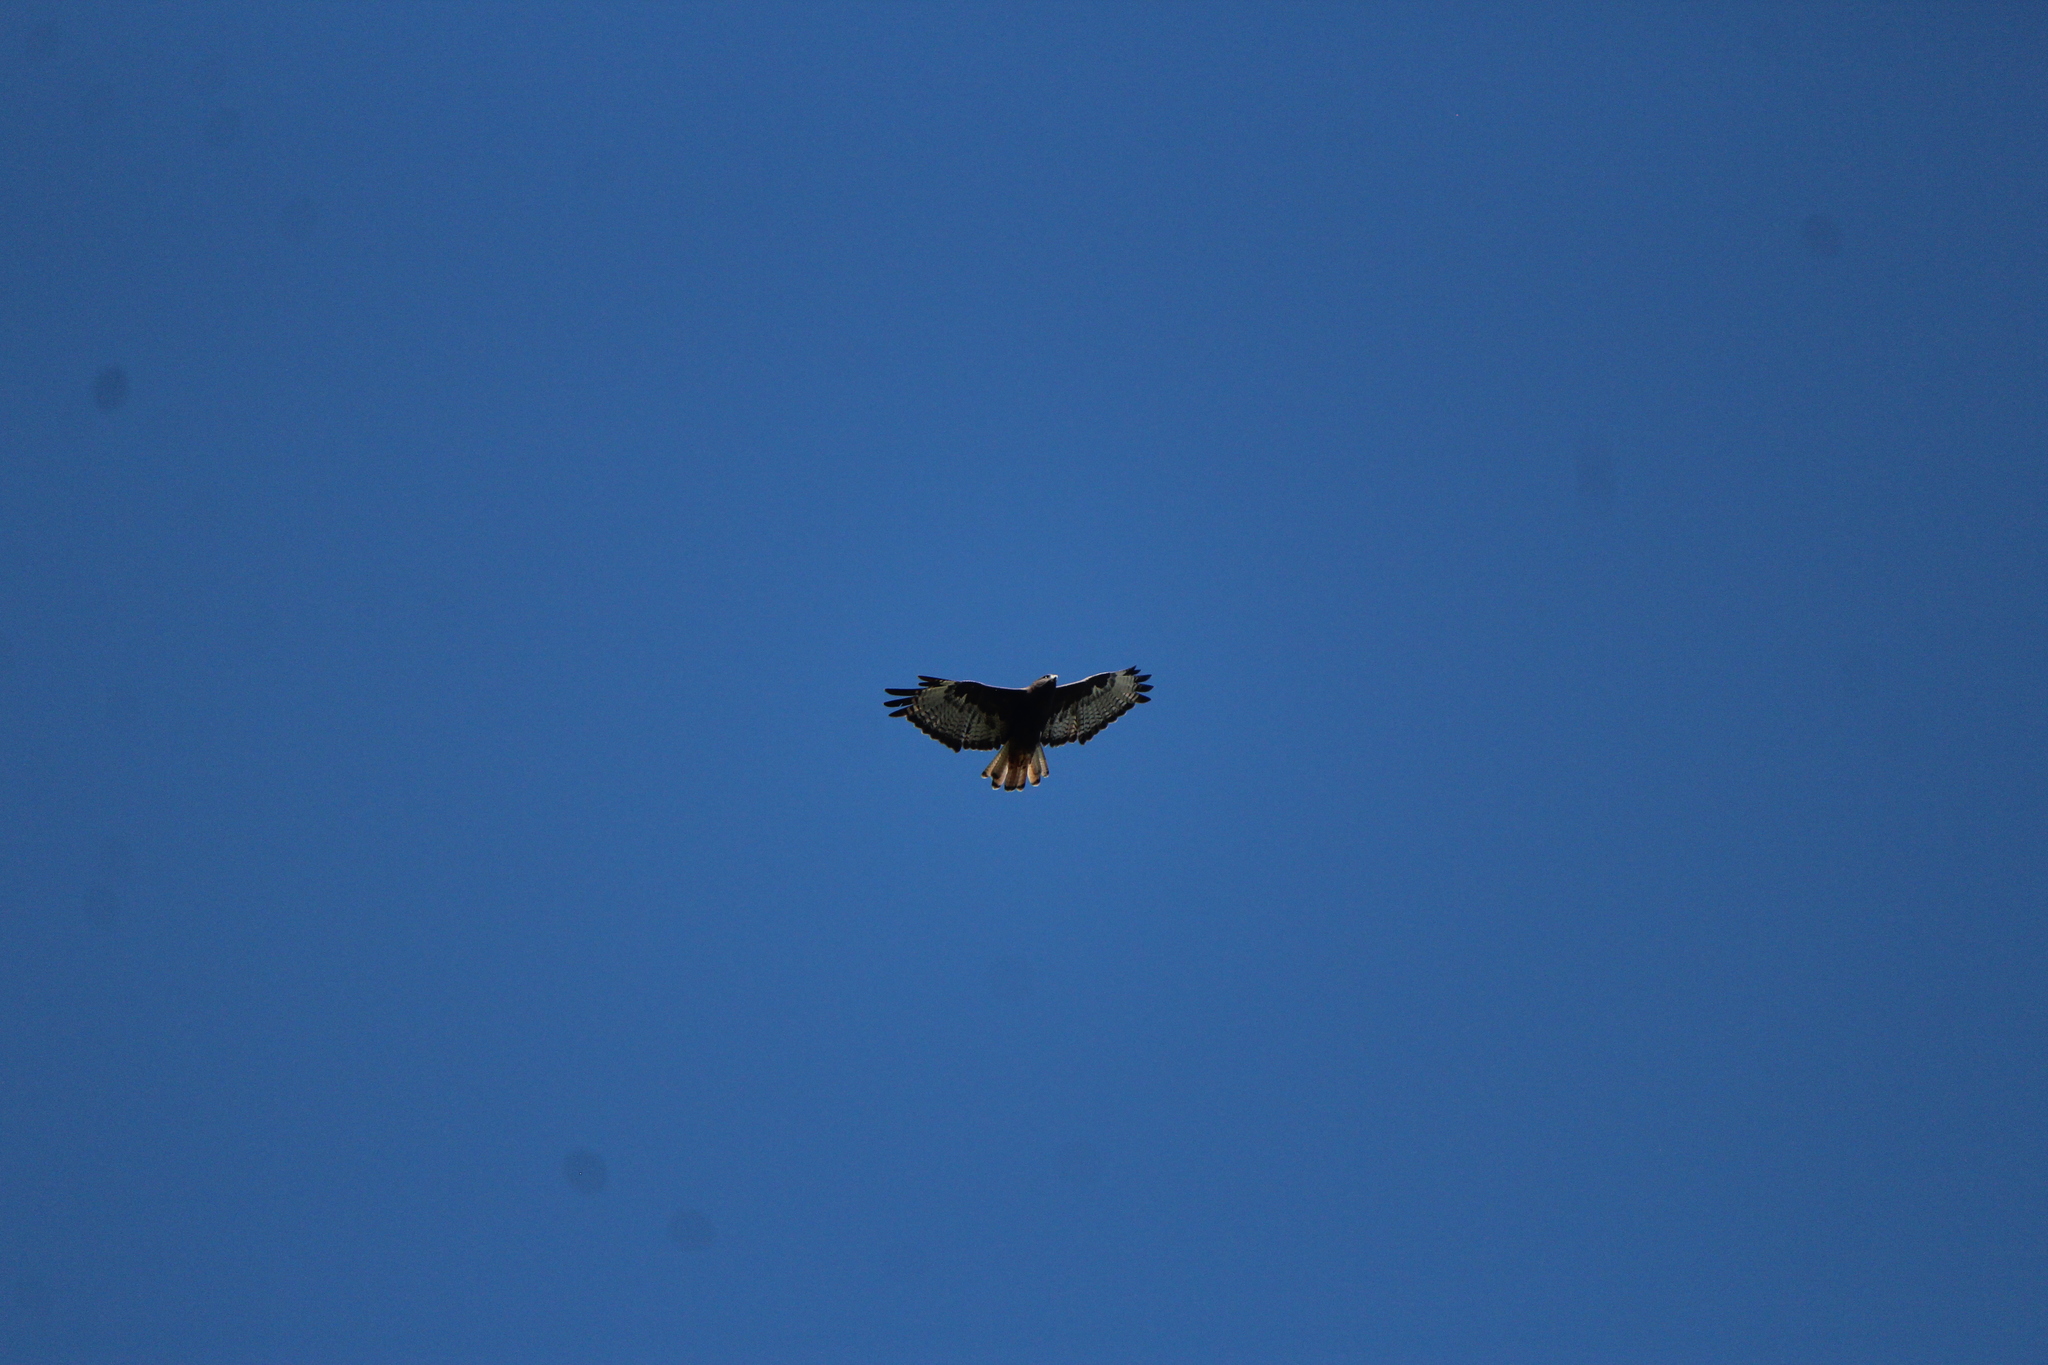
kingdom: Animalia
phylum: Chordata
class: Aves
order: Accipitriformes
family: Accipitridae
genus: Buteo
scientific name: Buteo jamaicensis
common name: Red-tailed hawk
